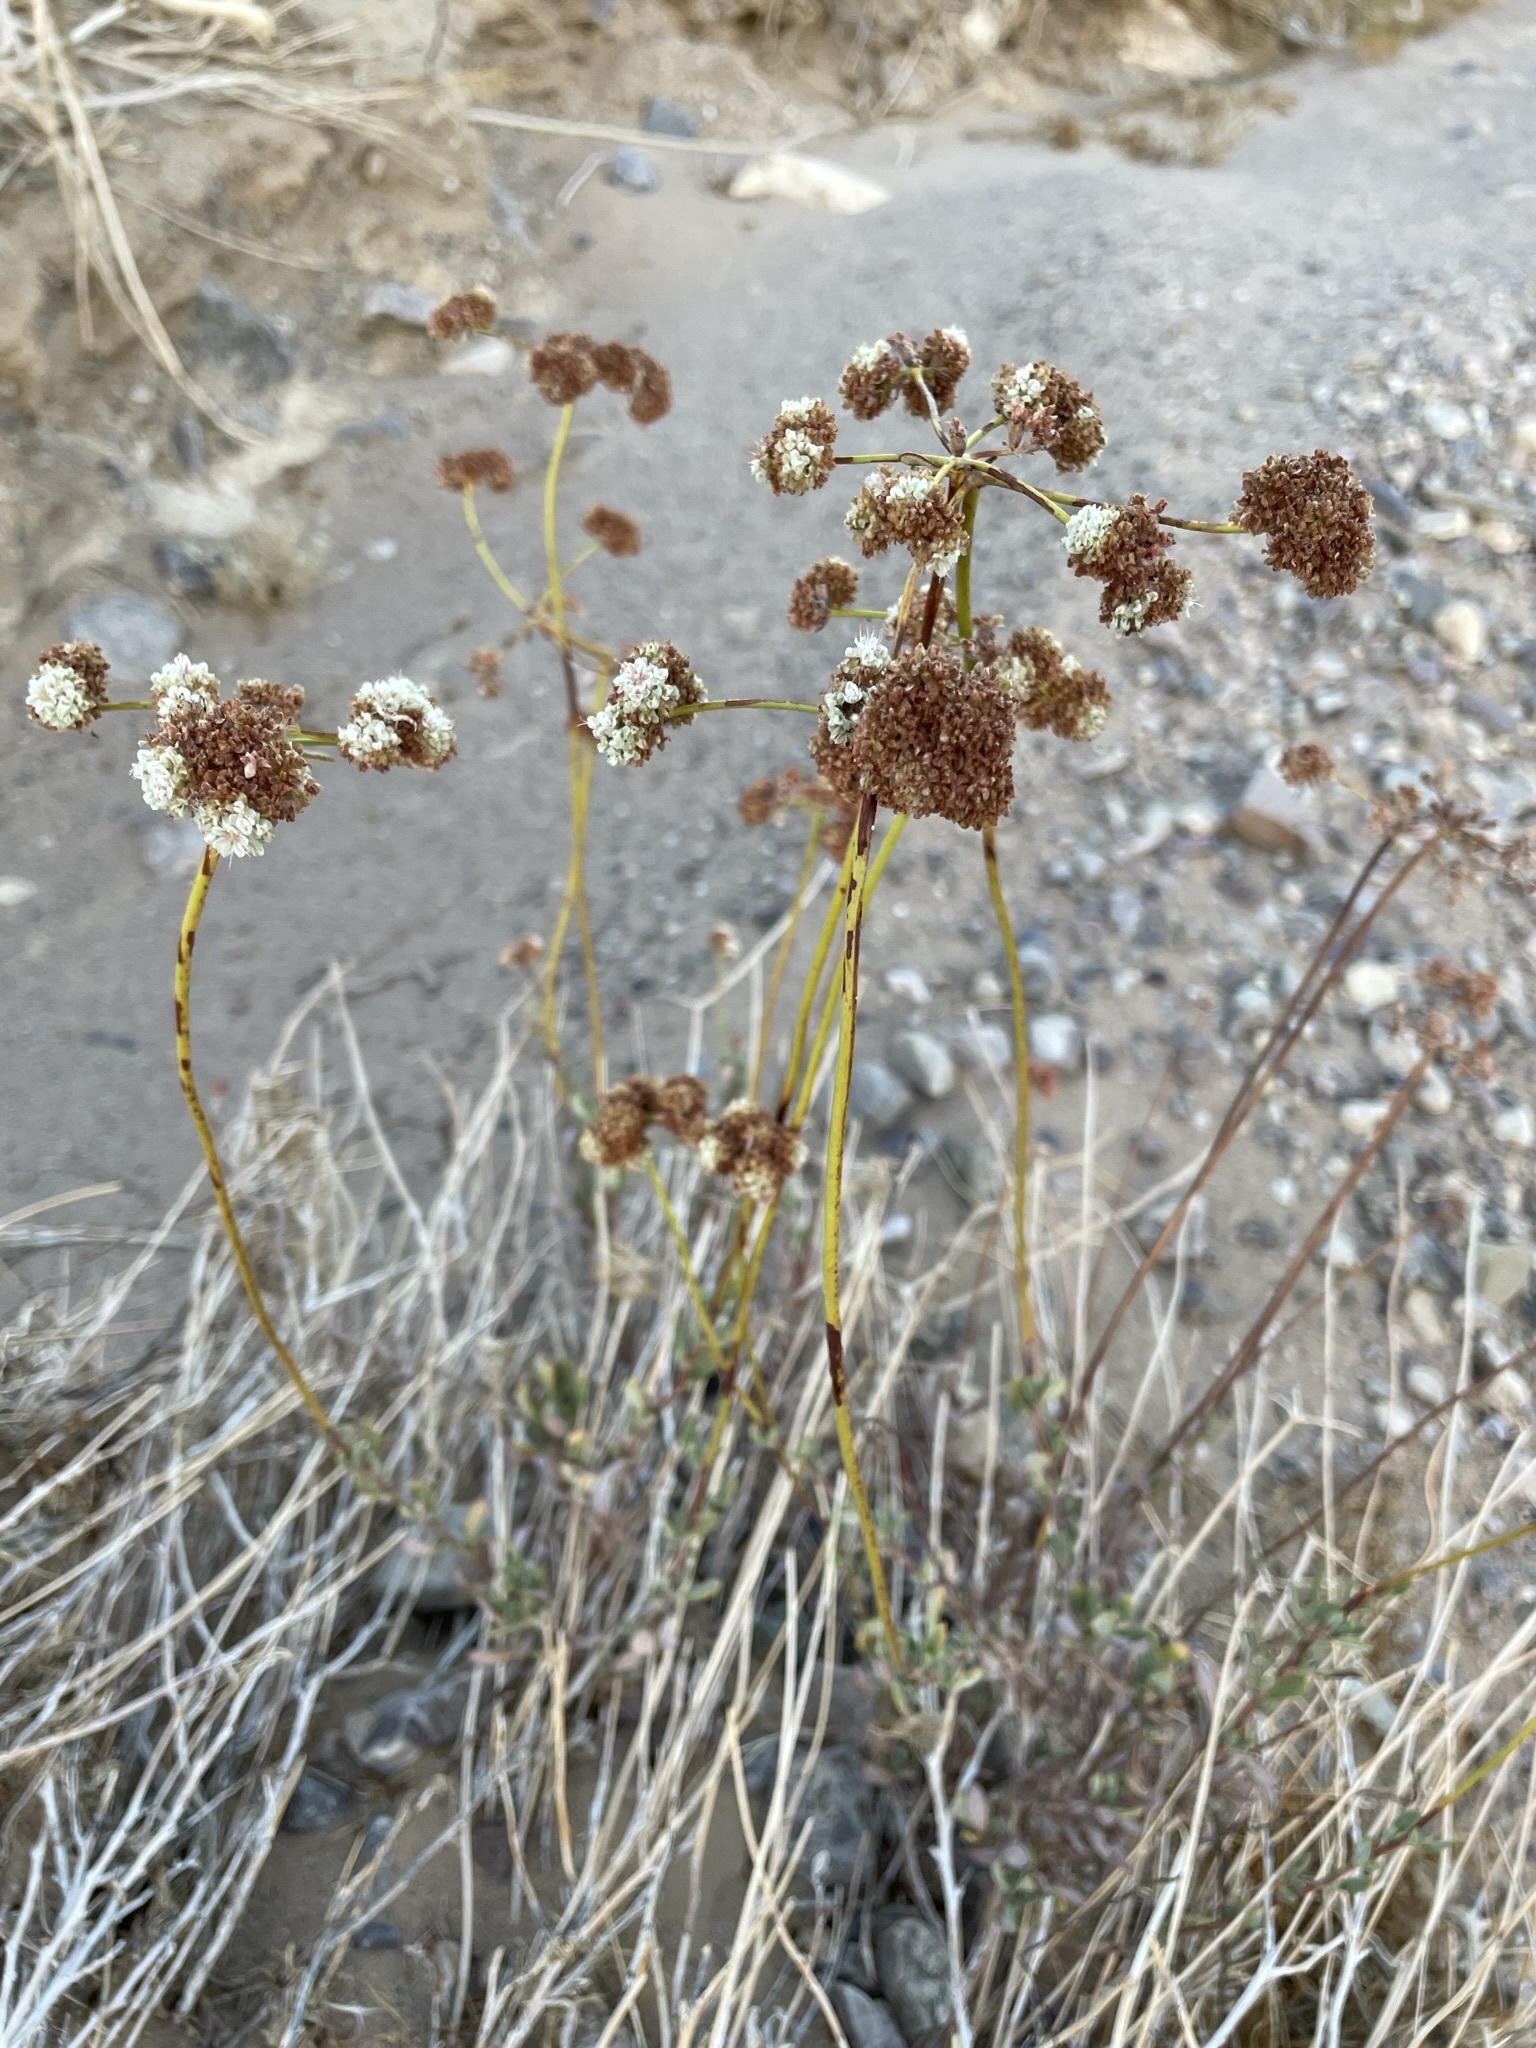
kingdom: Plantae
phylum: Tracheophyta
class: Magnoliopsida
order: Caryophyllales
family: Polygonaceae
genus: Eriogonum
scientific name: Eriogonum fasciculatum
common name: California wild buckwheat
